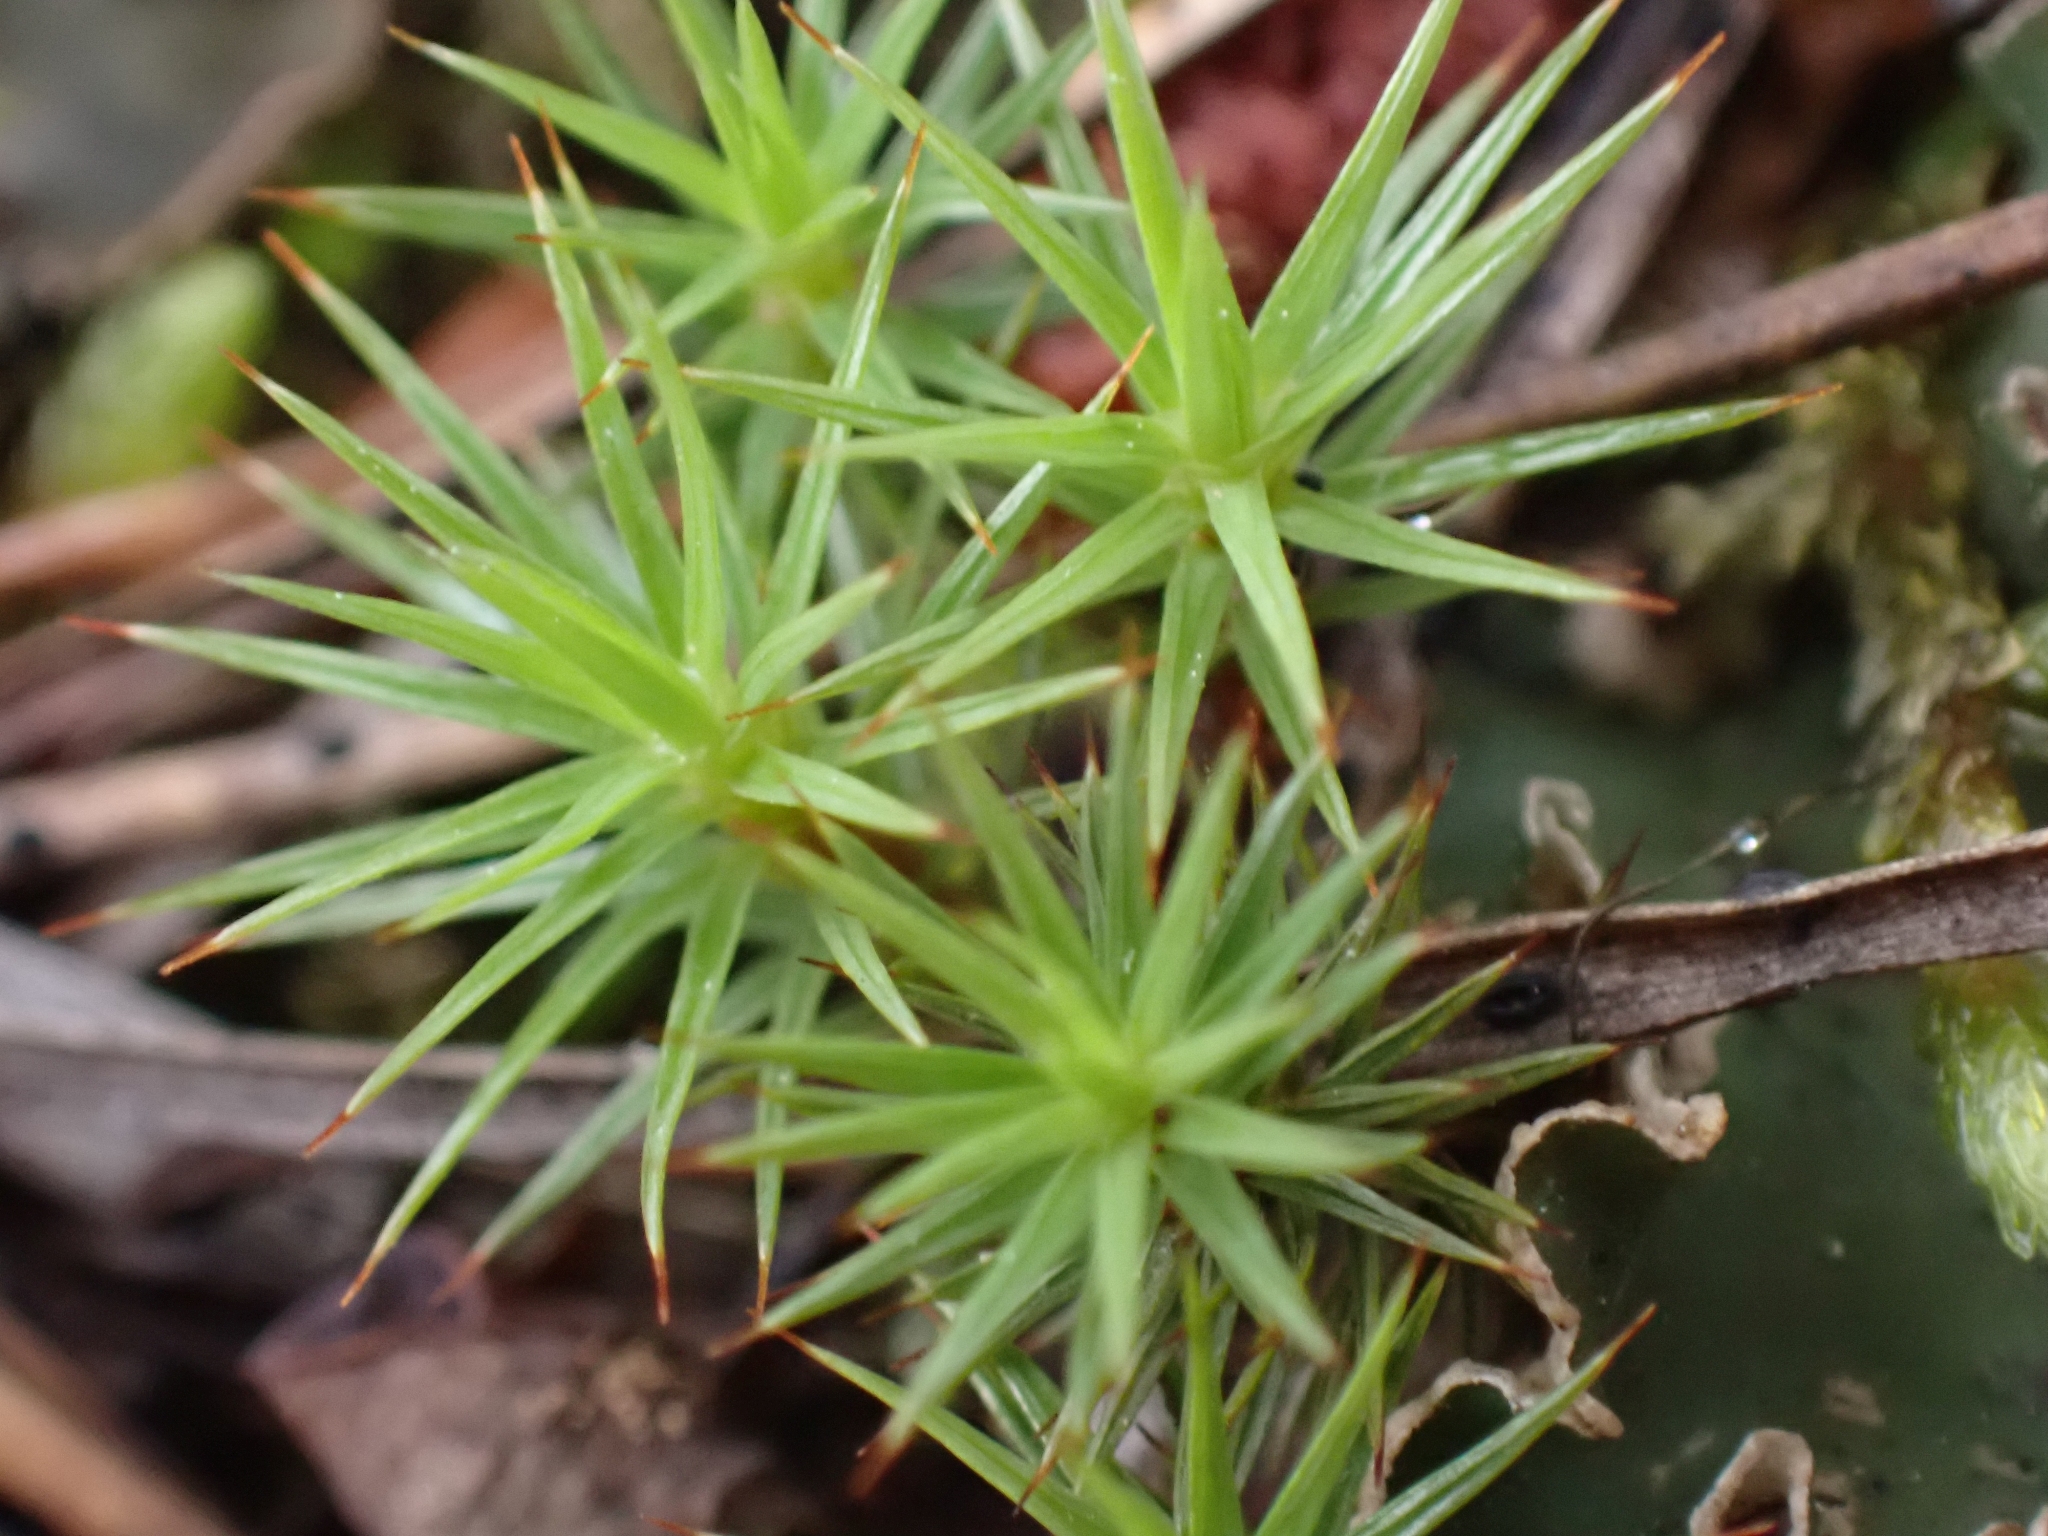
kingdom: Plantae
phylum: Bryophyta
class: Polytrichopsida
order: Polytrichales
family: Polytrichaceae
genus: Polytrichum
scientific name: Polytrichum juniperinum
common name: Juniper haircap moss
